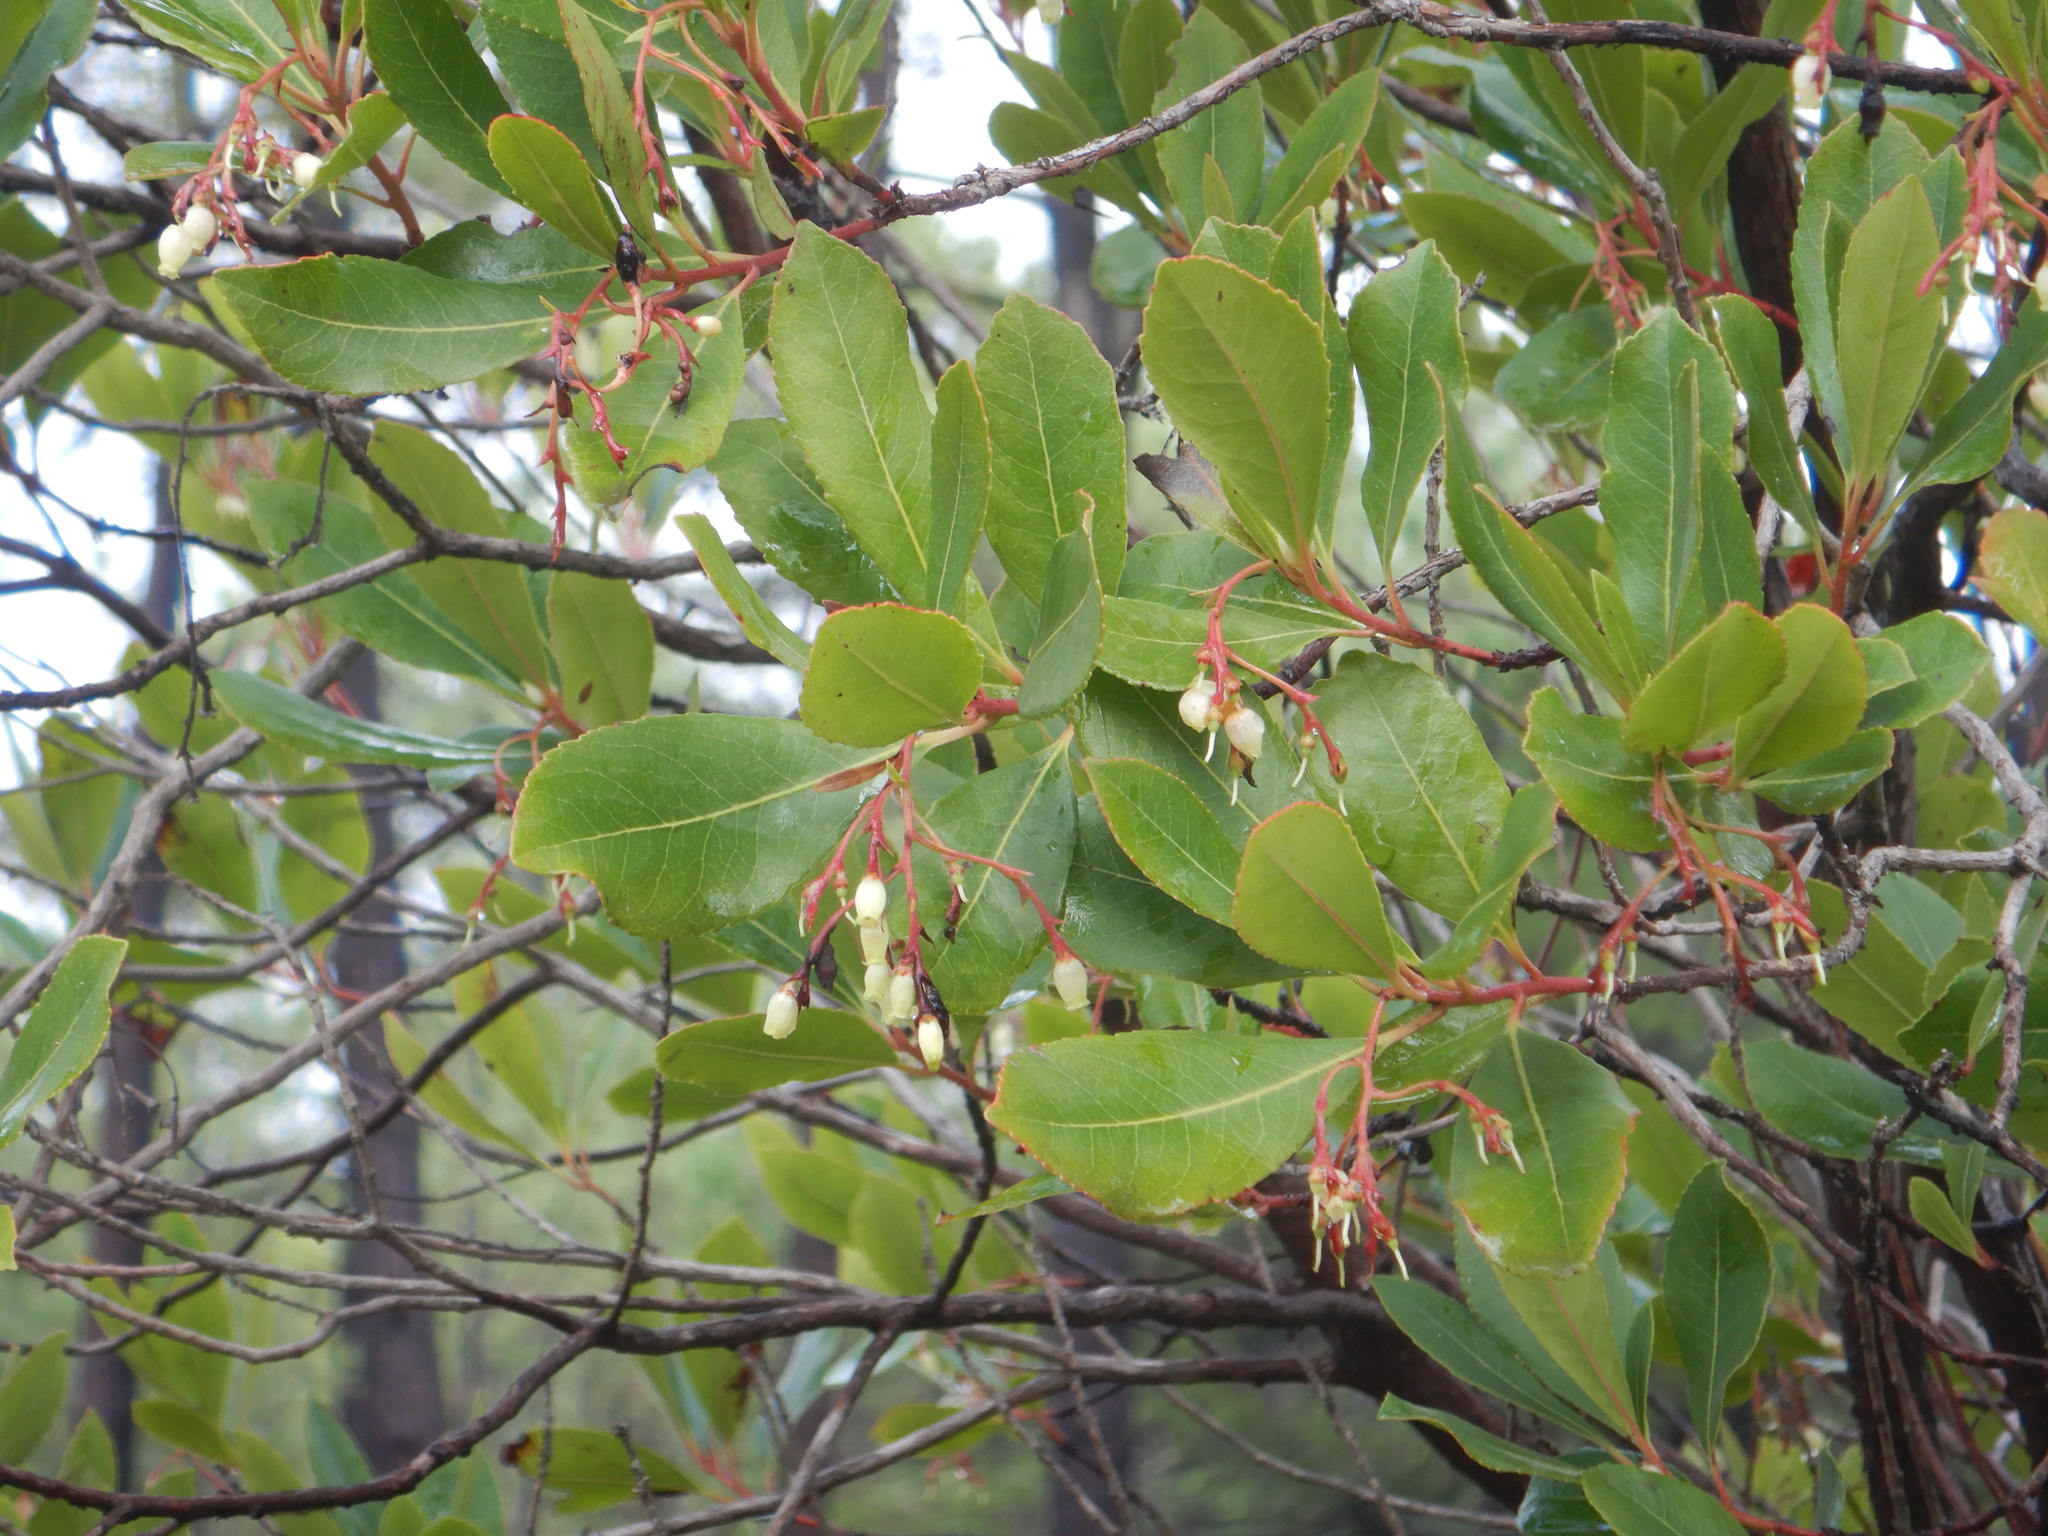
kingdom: Plantae
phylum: Tracheophyta
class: Magnoliopsida
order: Ericales
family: Ericaceae
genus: Arbutus
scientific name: Arbutus unedo
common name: Strawberry-tree
